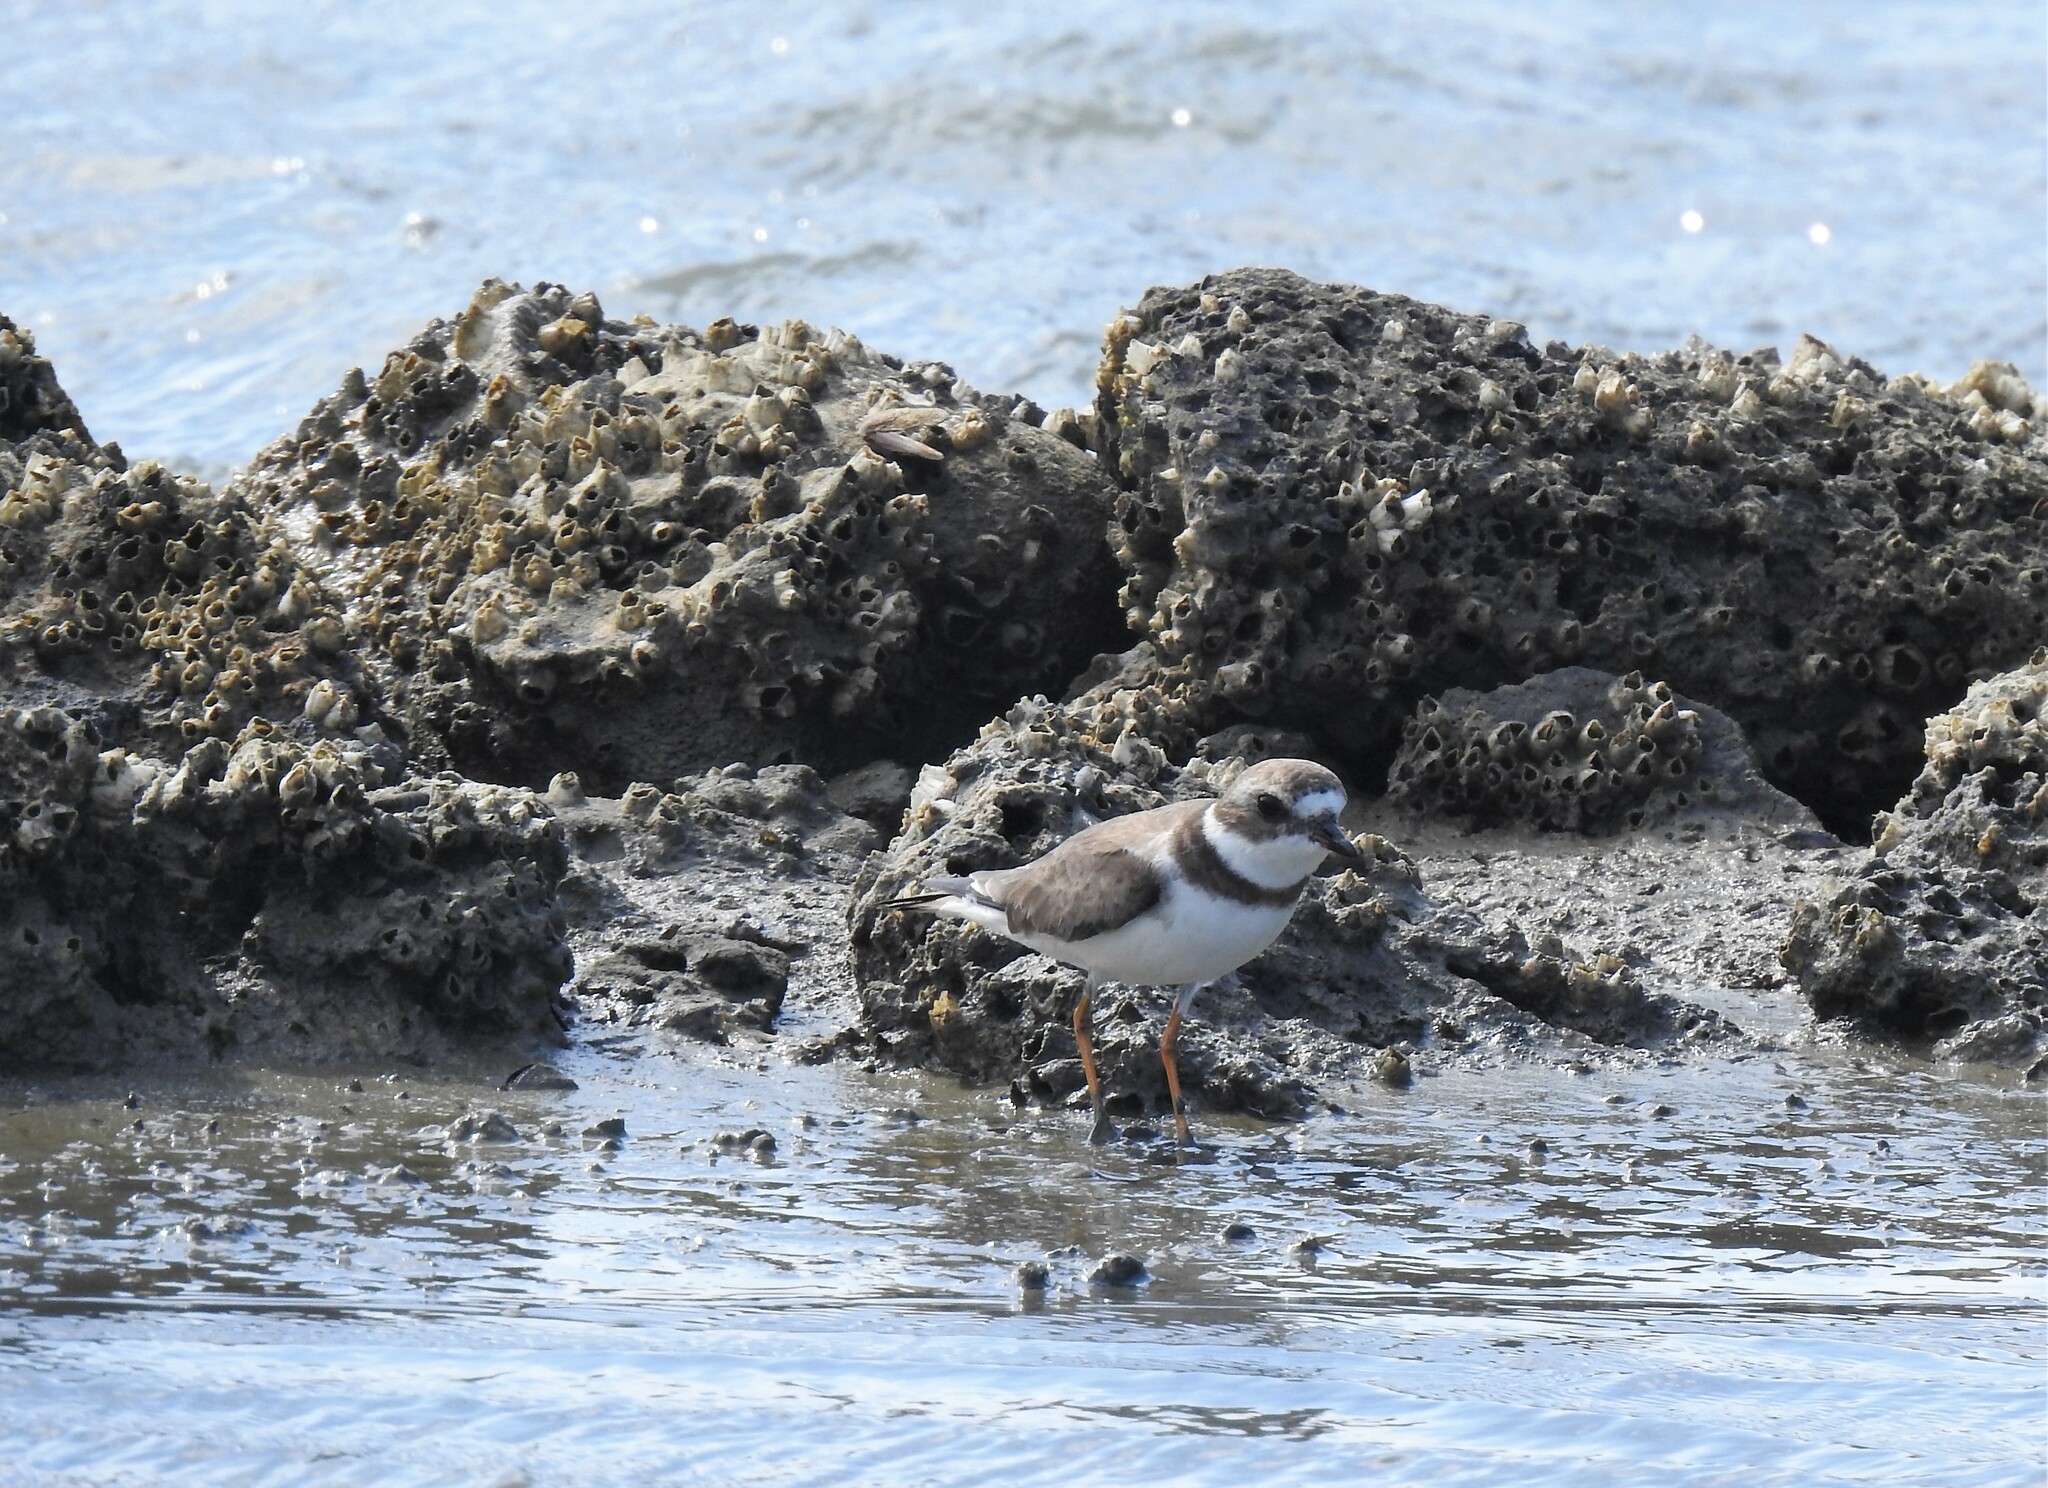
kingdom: Animalia
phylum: Chordata
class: Aves
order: Charadriiformes
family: Charadriidae
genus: Charadrius
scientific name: Charadrius semipalmatus
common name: Semipalmated plover
